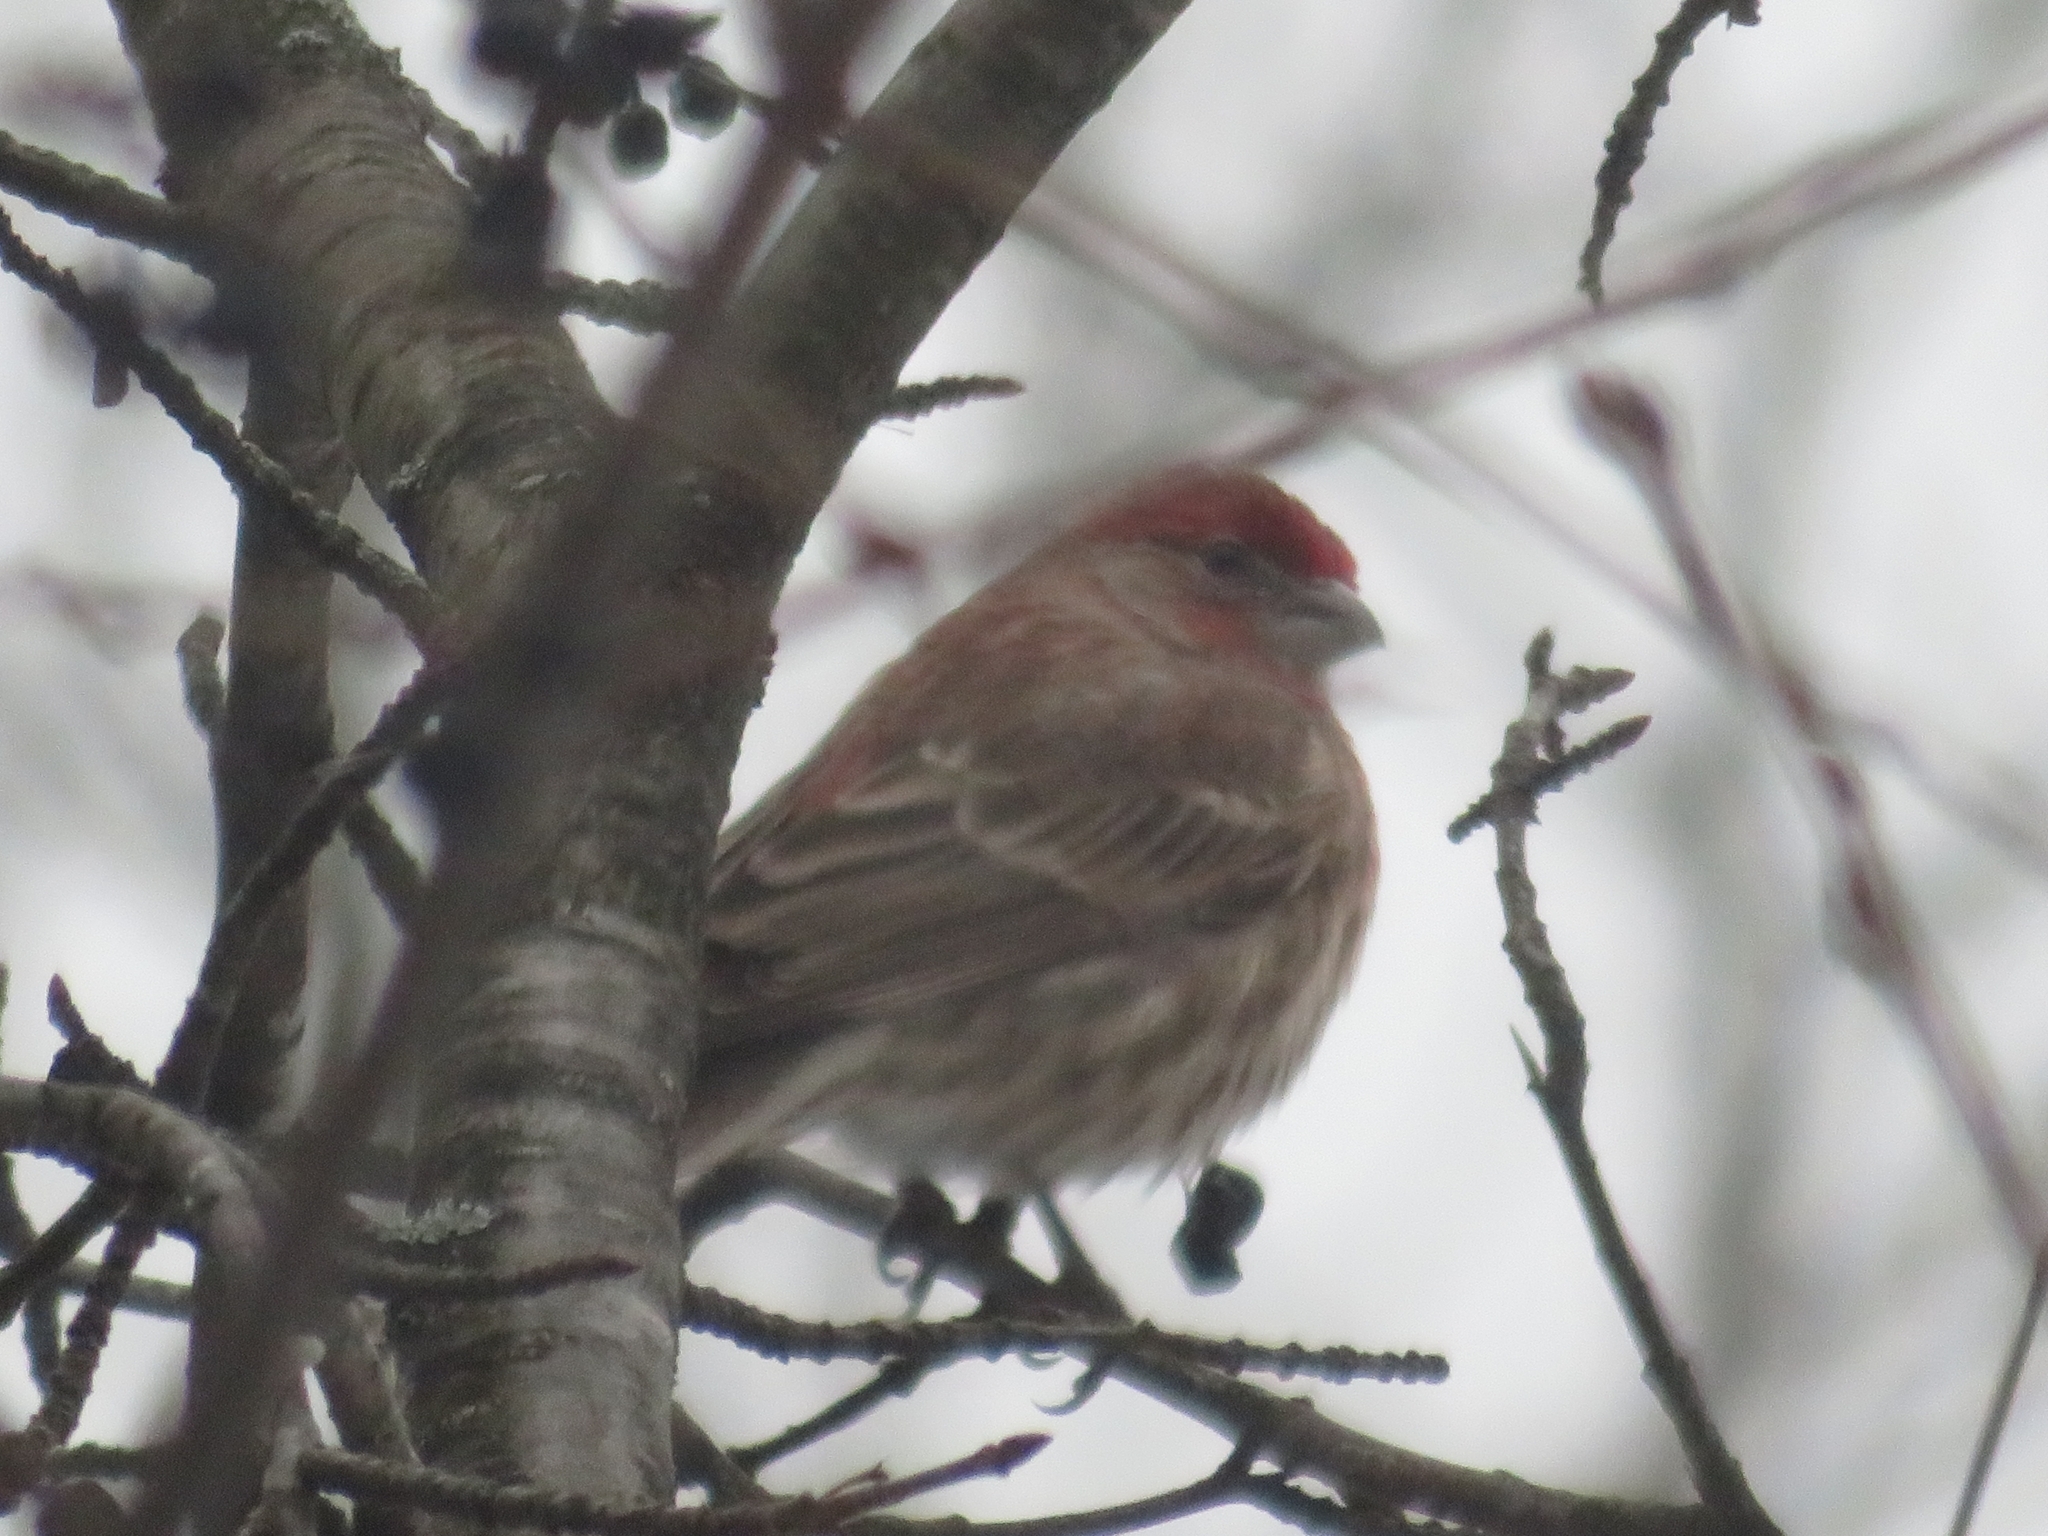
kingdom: Animalia
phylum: Chordata
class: Aves
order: Passeriformes
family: Fringillidae
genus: Haemorhous
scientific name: Haemorhous mexicanus
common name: House finch
